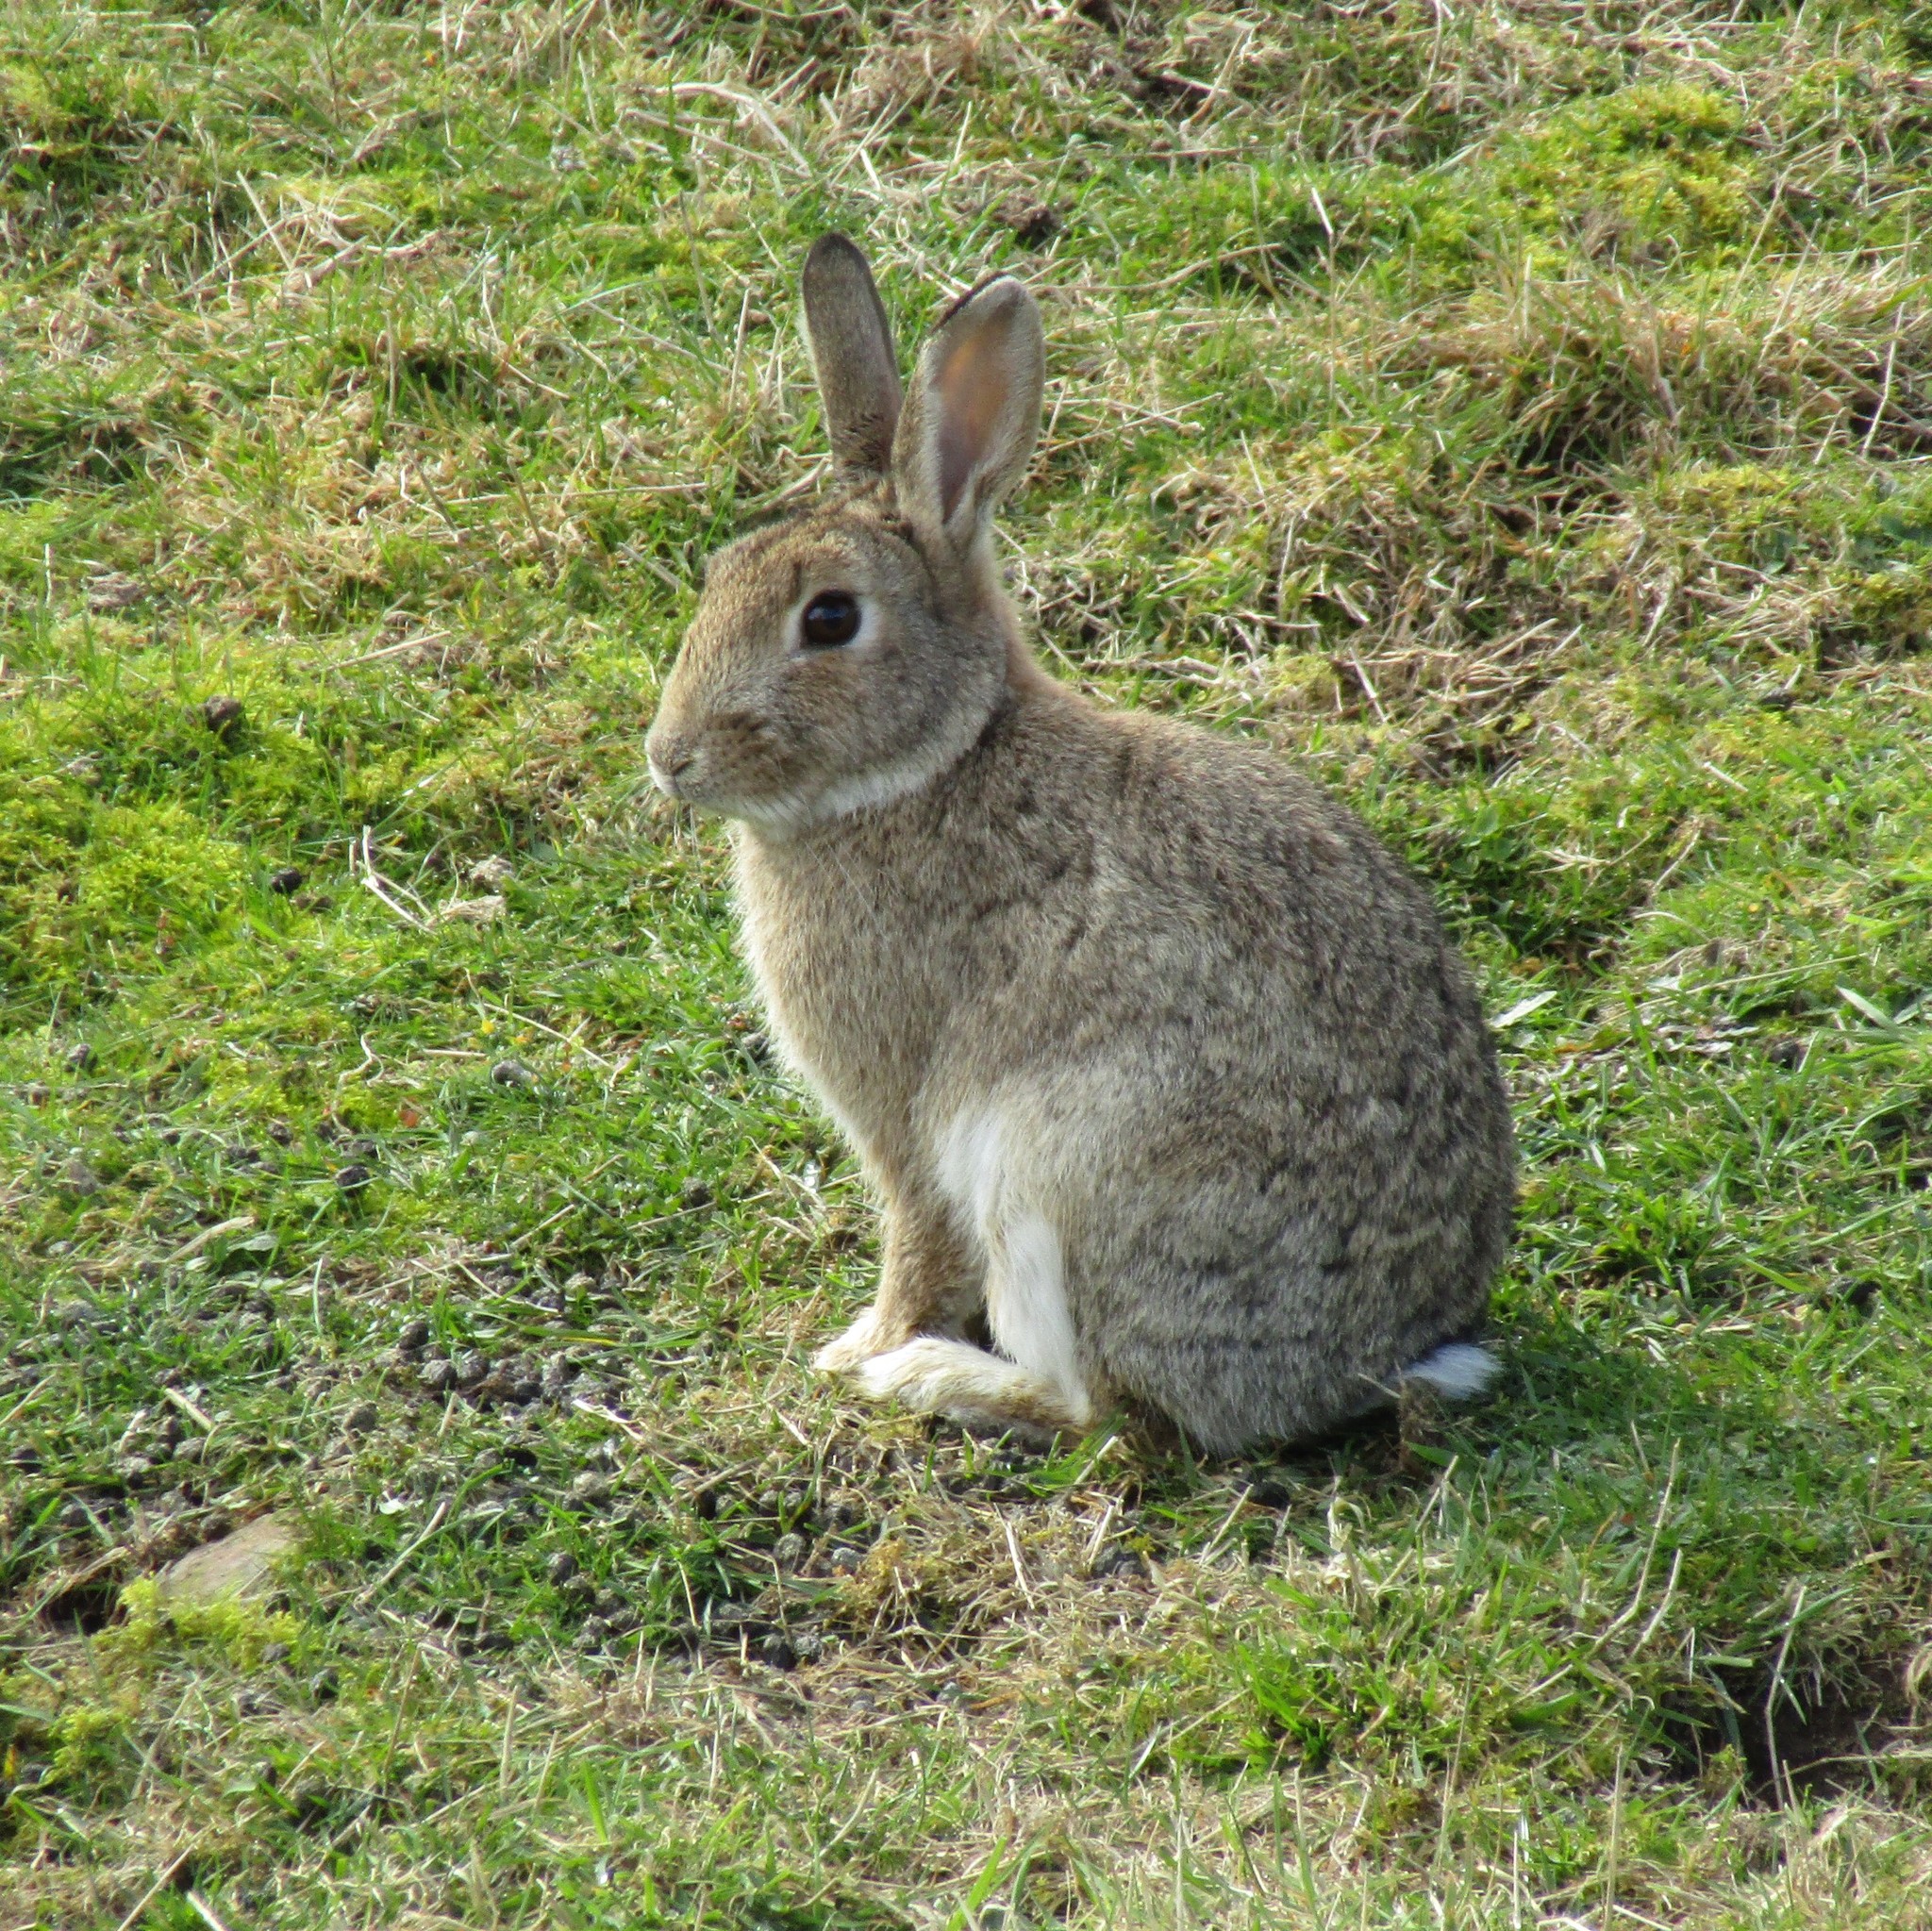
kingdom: Animalia
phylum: Chordata
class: Mammalia
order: Lagomorpha
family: Leporidae
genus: Oryctolagus
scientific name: Oryctolagus cuniculus
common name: European rabbit
